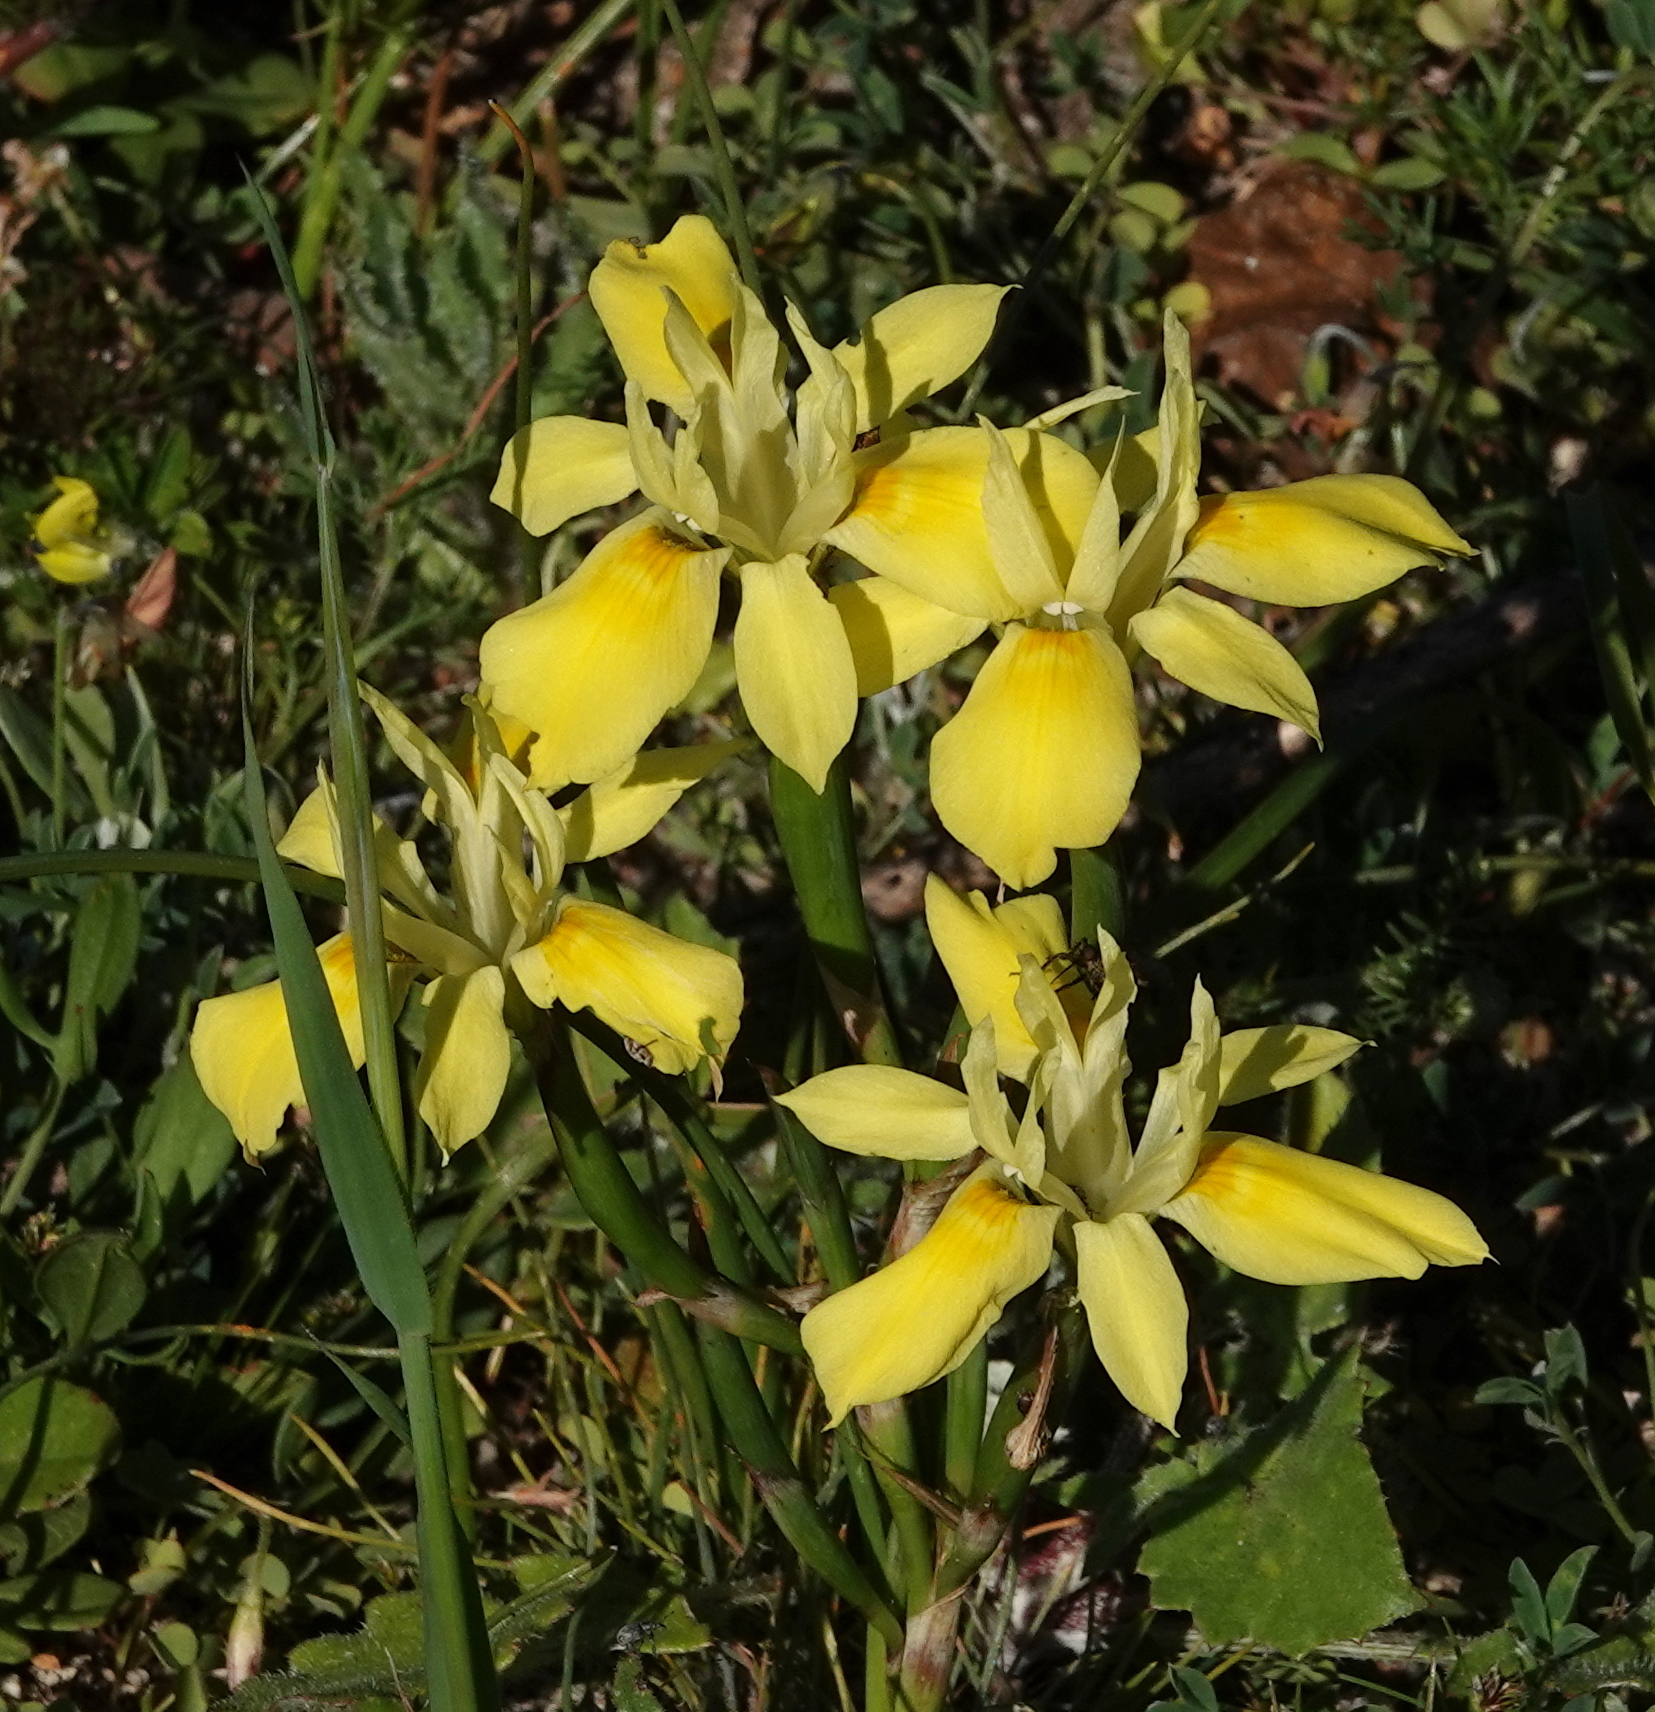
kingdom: Plantae
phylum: Tracheophyta
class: Liliopsida
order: Asparagales
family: Iridaceae
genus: Moraea
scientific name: Moraea fugax
